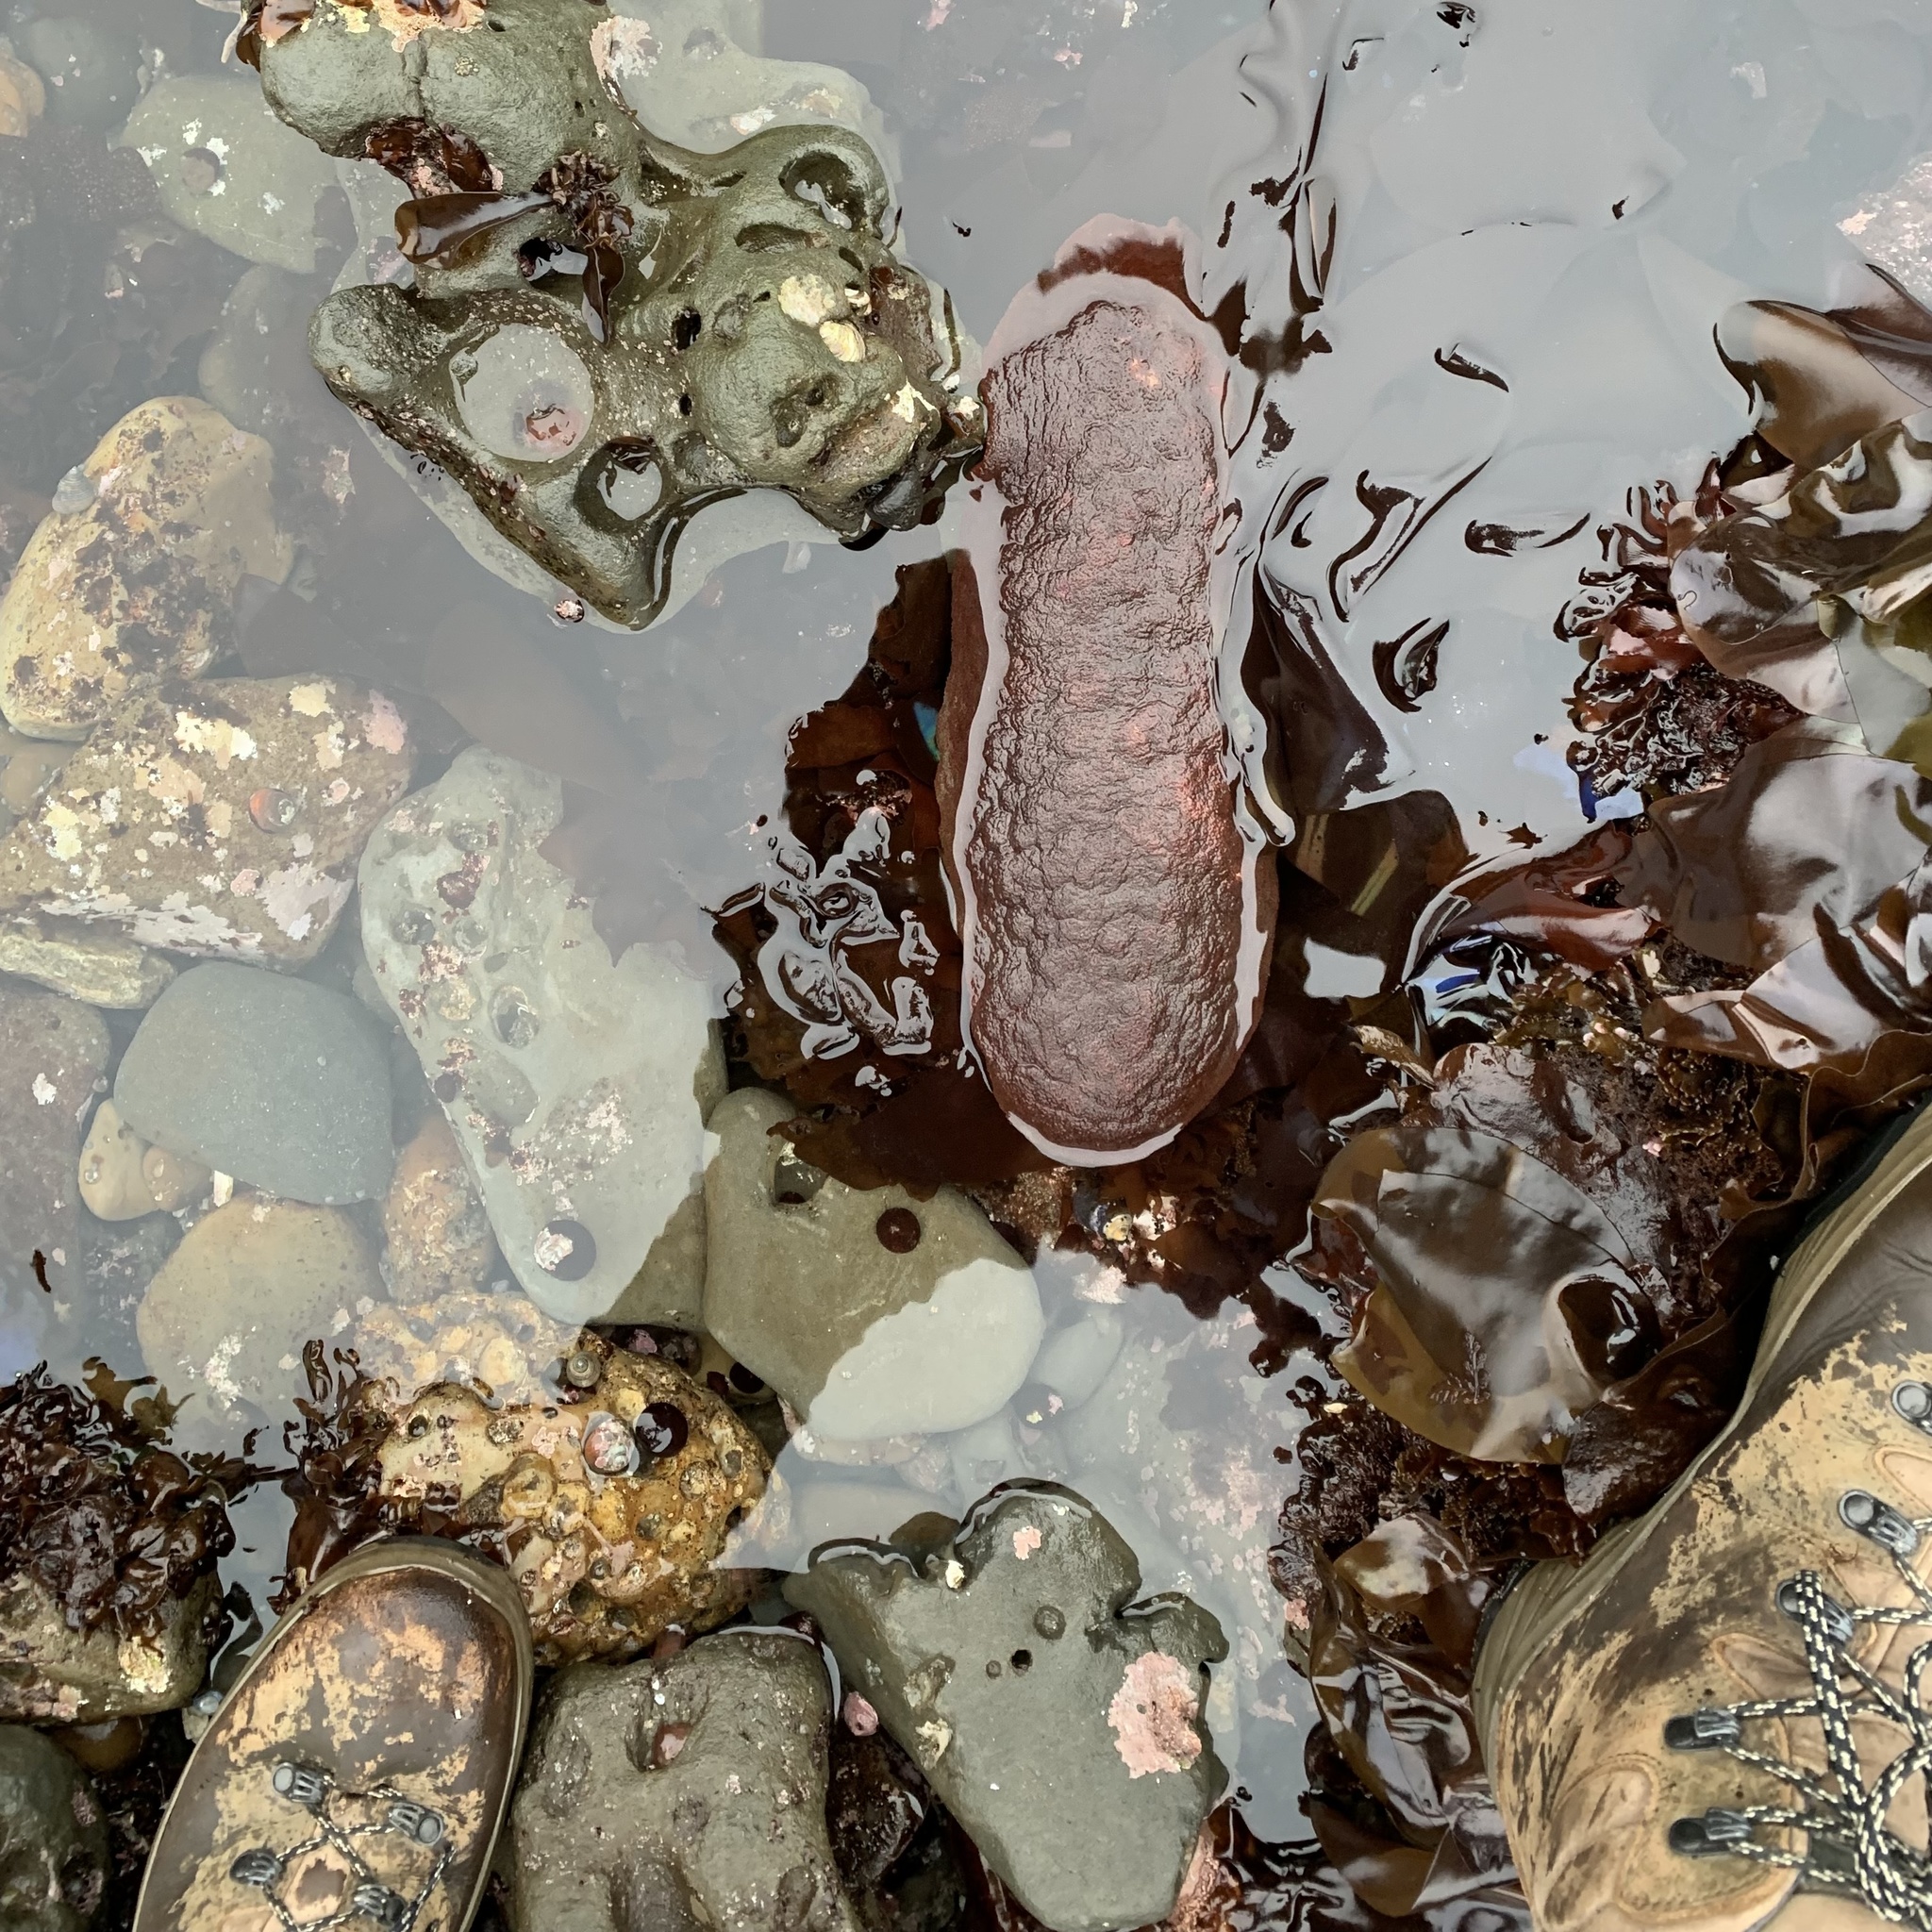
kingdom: Animalia
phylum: Mollusca
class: Polyplacophora
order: Chitonida
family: Acanthochitonidae
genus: Cryptochiton
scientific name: Cryptochiton stelleri
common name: Giant pacific chiton
